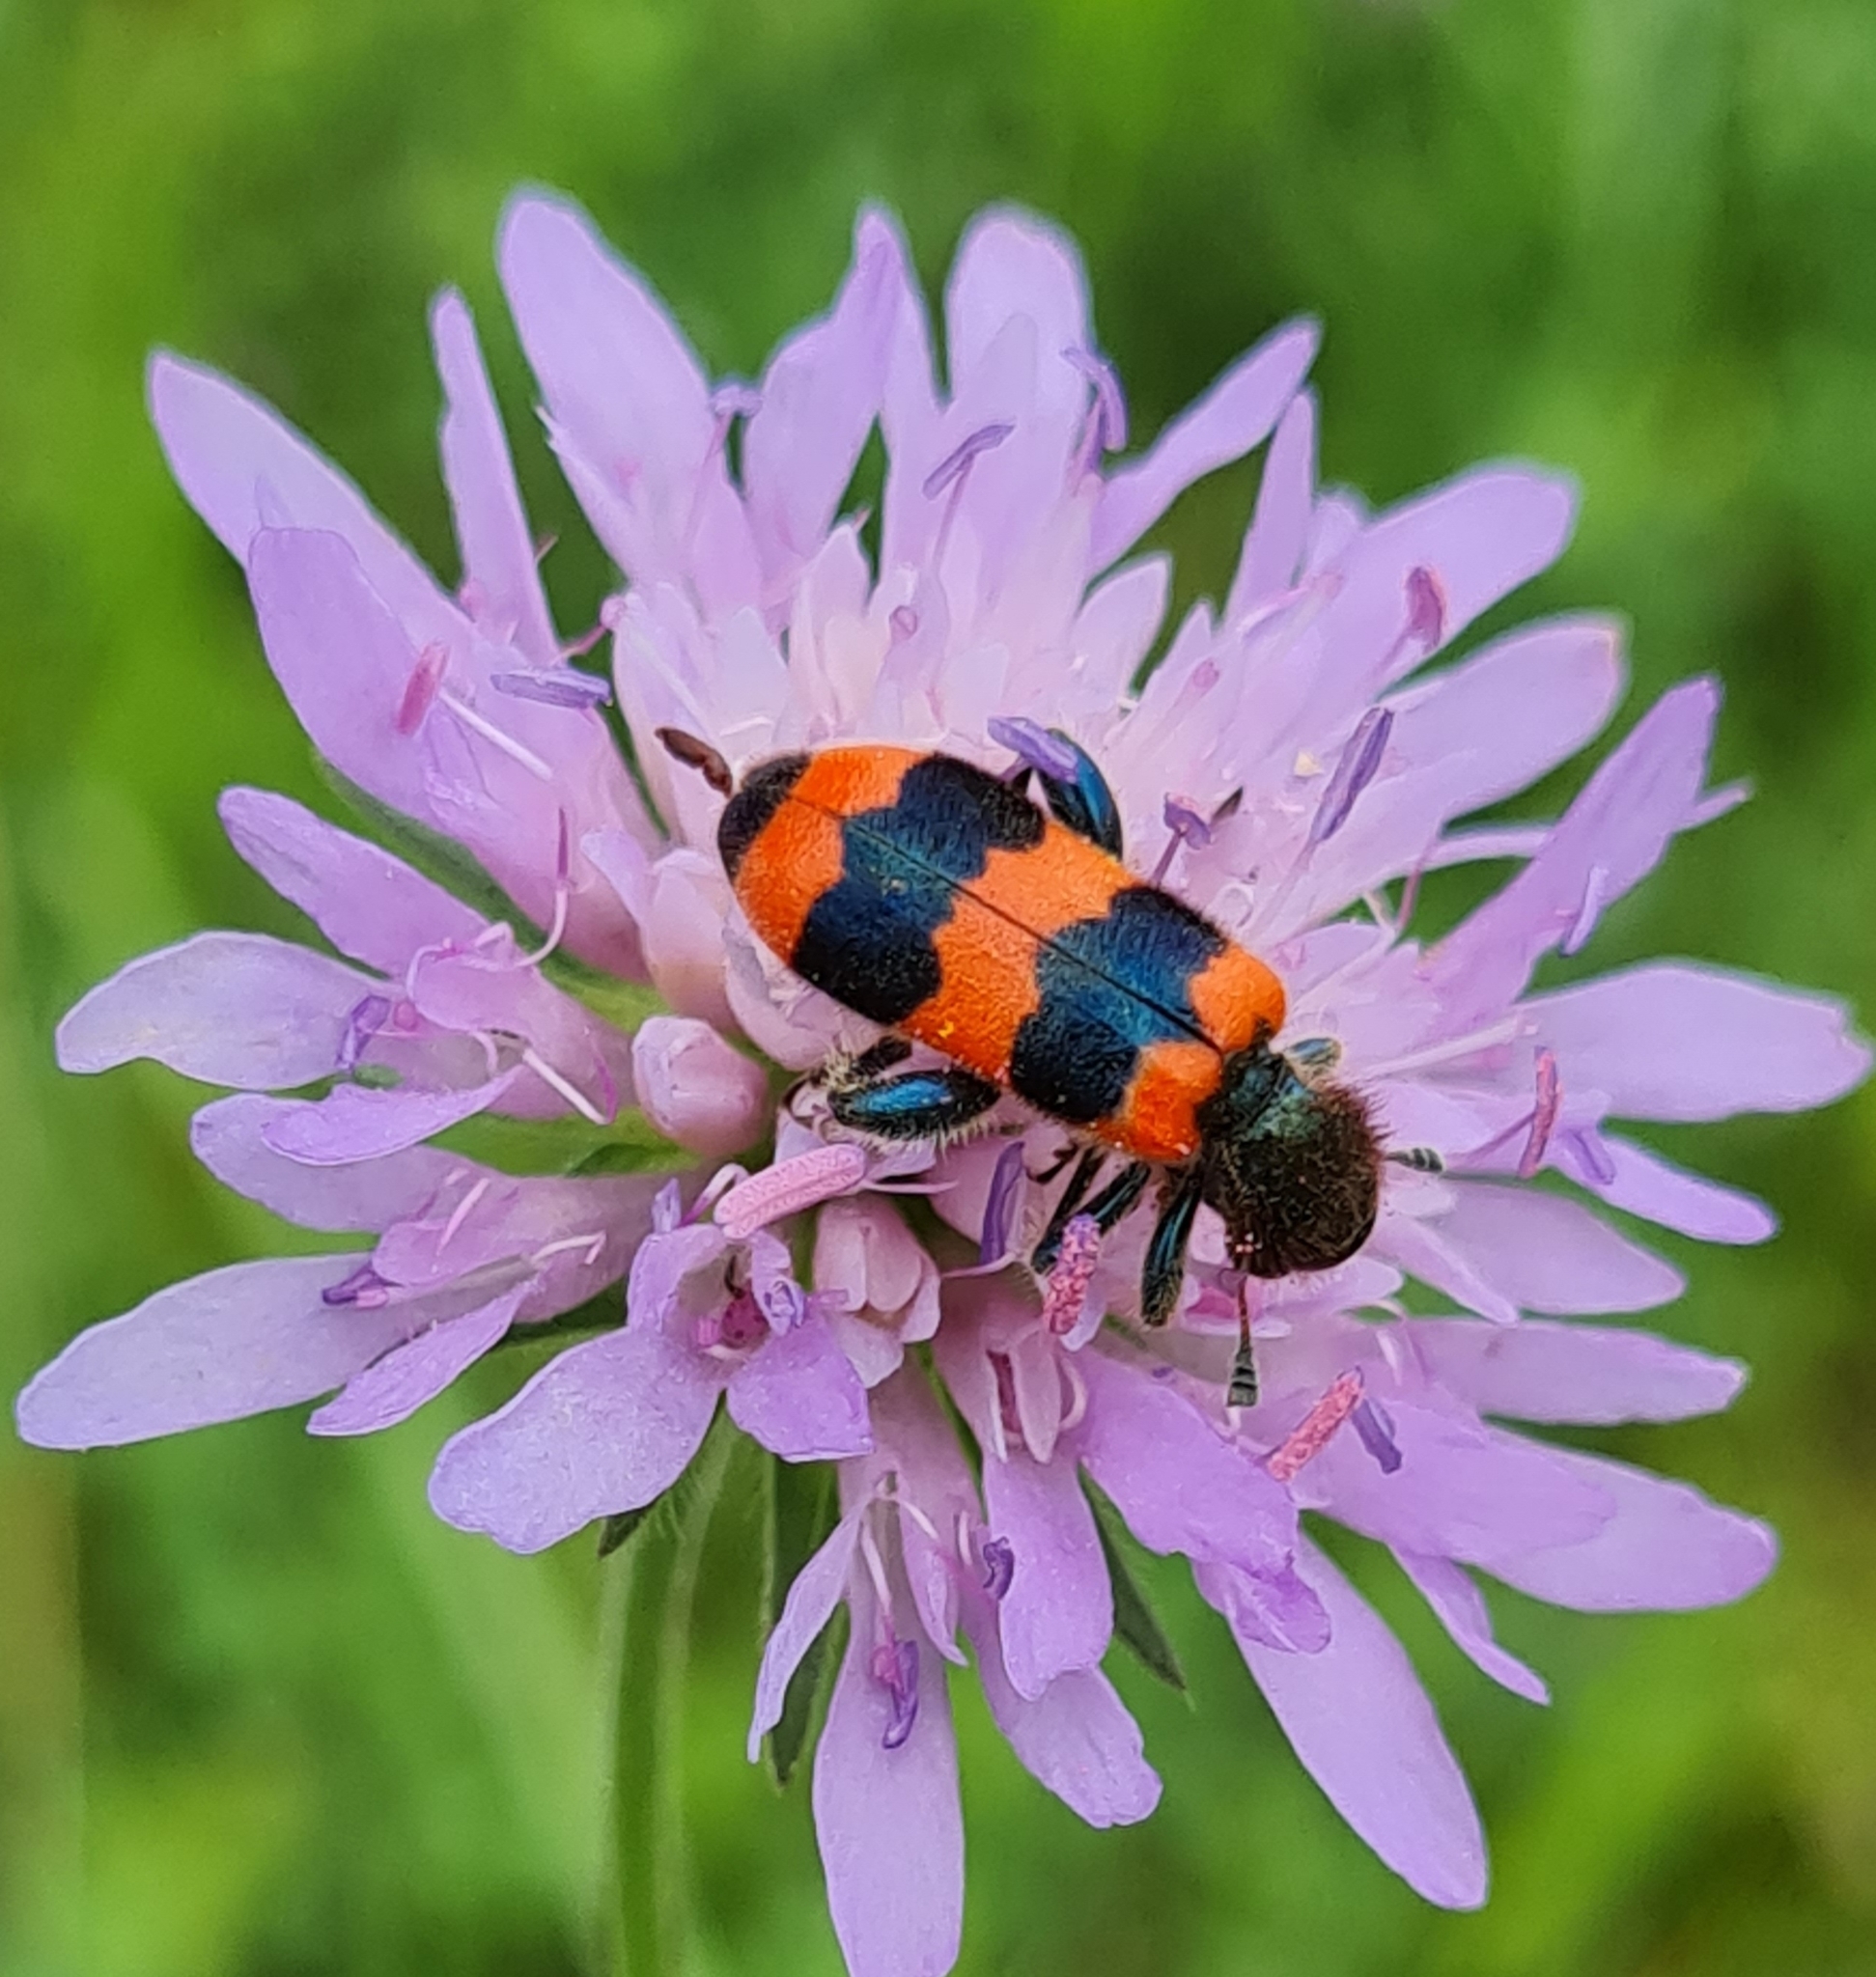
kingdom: Animalia
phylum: Arthropoda
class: Insecta
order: Coleoptera
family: Cleridae
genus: Trichodes
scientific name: Trichodes apiarius
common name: Bee-eating beetle
